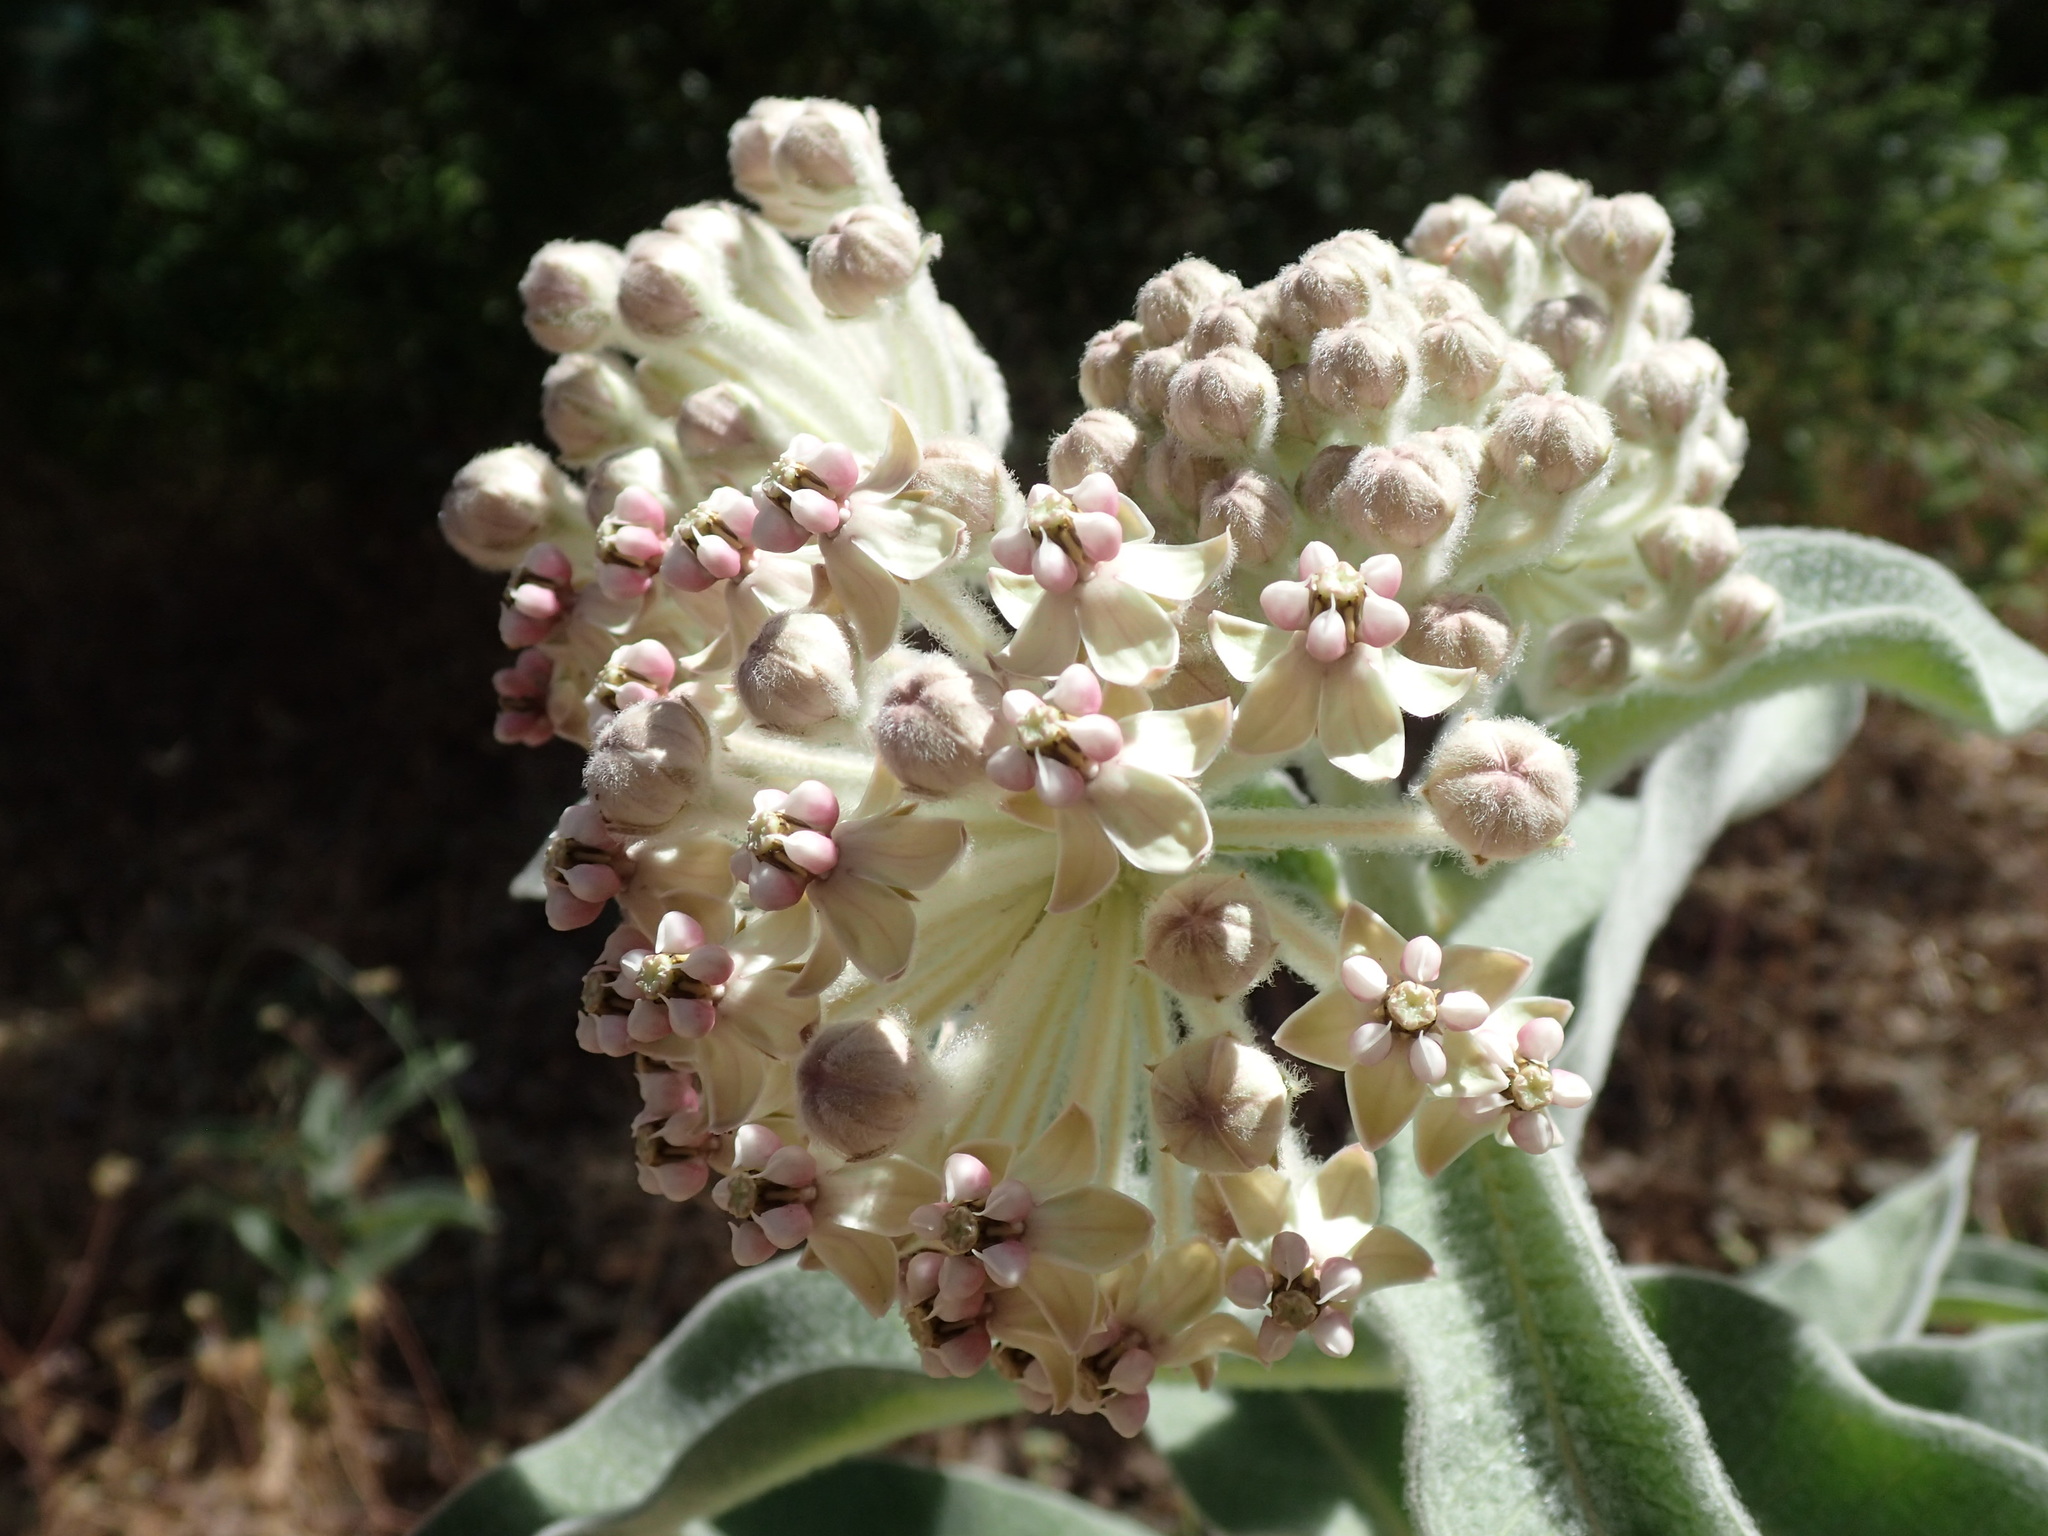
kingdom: Plantae
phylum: Tracheophyta
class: Magnoliopsida
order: Gentianales
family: Apocynaceae
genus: Asclepias
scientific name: Asclepias eriocarpa
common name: Indian milkweed
